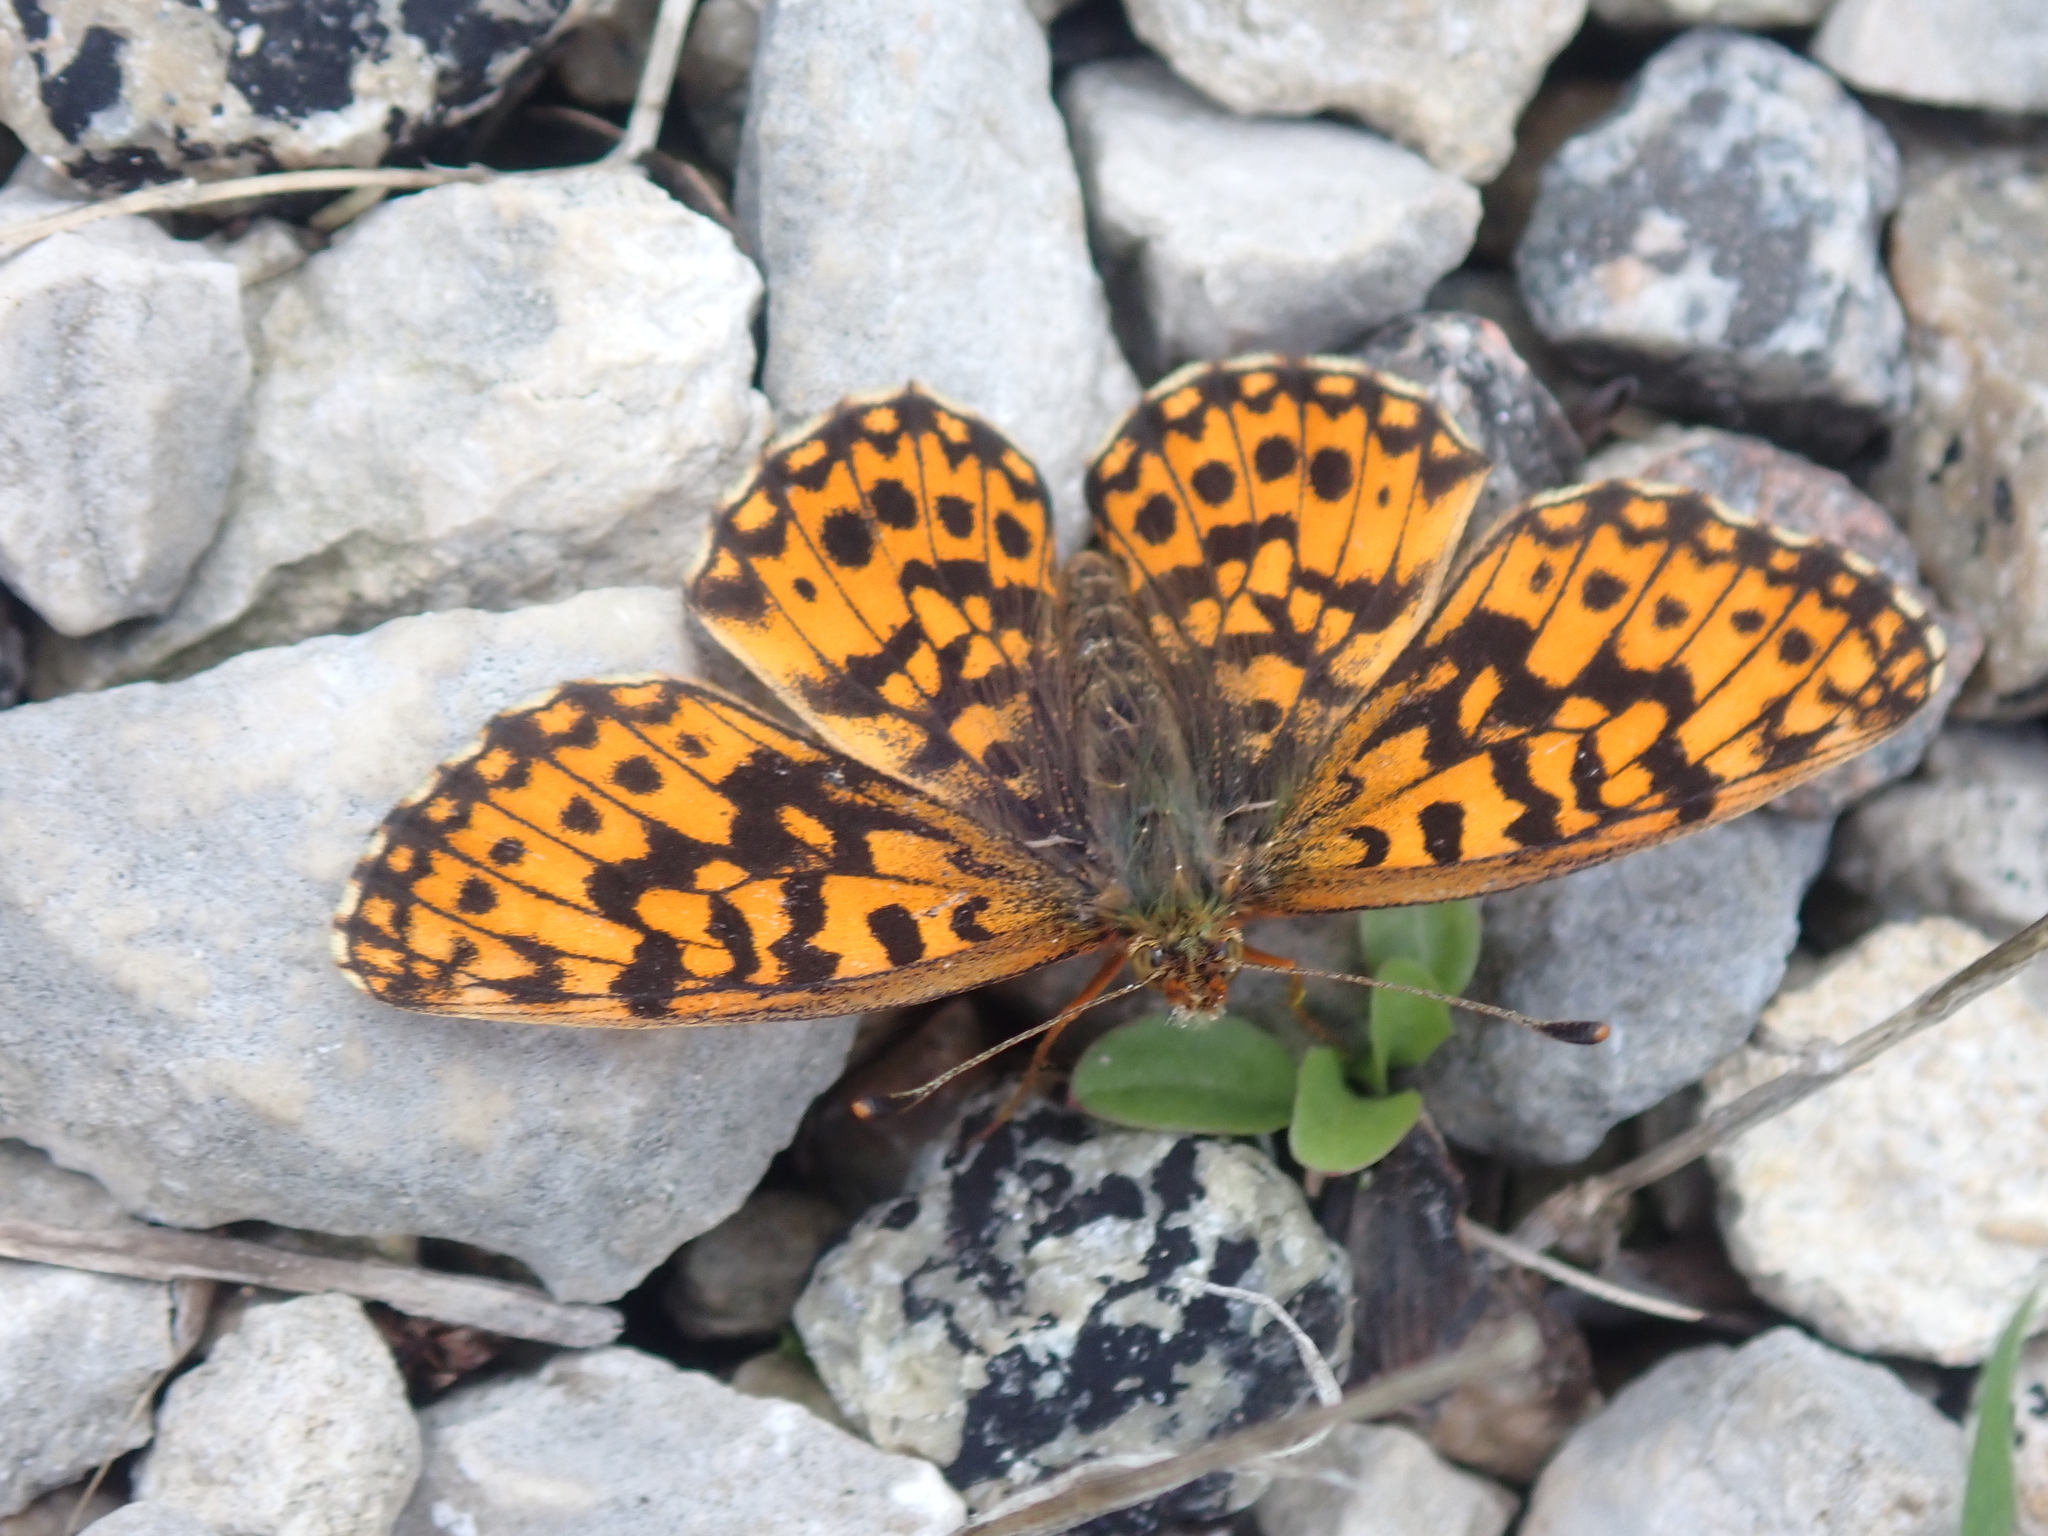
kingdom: Animalia
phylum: Arthropoda
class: Insecta
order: Lepidoptera
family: Nymphalidae
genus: Boloria
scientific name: Boloria dia
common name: Weaver's fritillary
